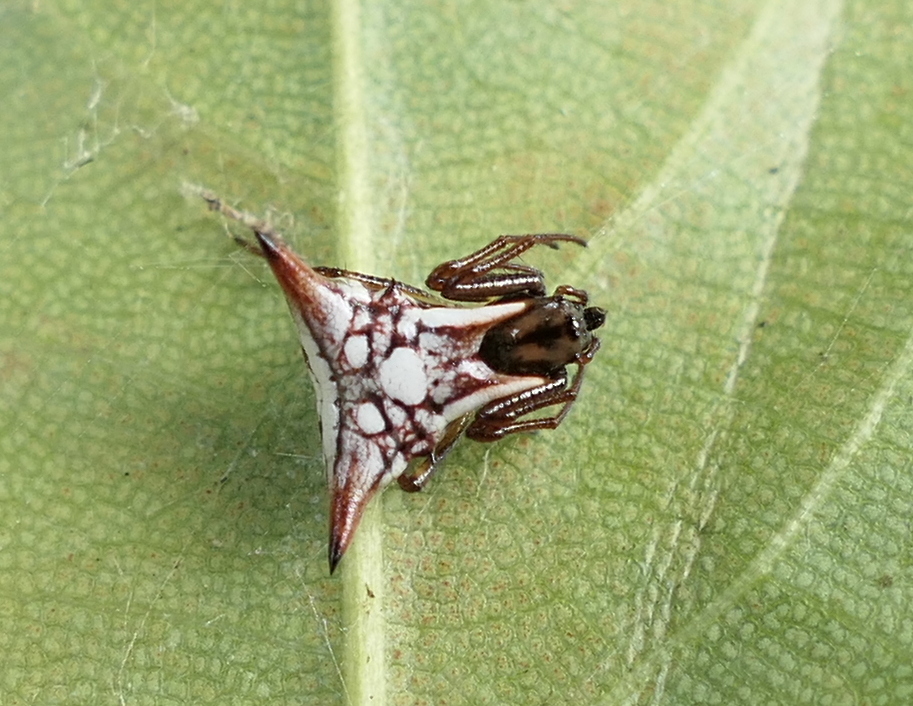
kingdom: Animalia
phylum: Arthropoda
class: Arachnida
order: Araneae
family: Araneidae
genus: Micrathena
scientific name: Micrathena evansi
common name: Orb weavers
